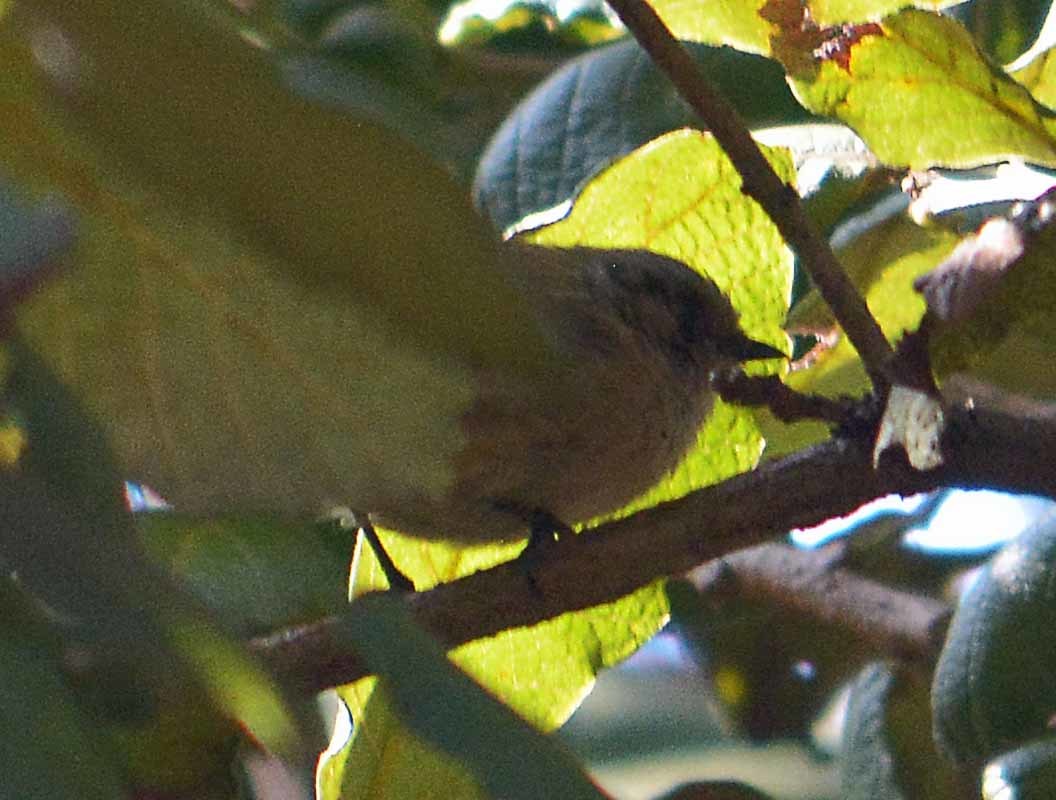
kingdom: Animalia
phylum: Chordata
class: Aves
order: Passeriformes
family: Aegithalidae
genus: Psaltriparus
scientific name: Psaltriparus minimus
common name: American bushtit
